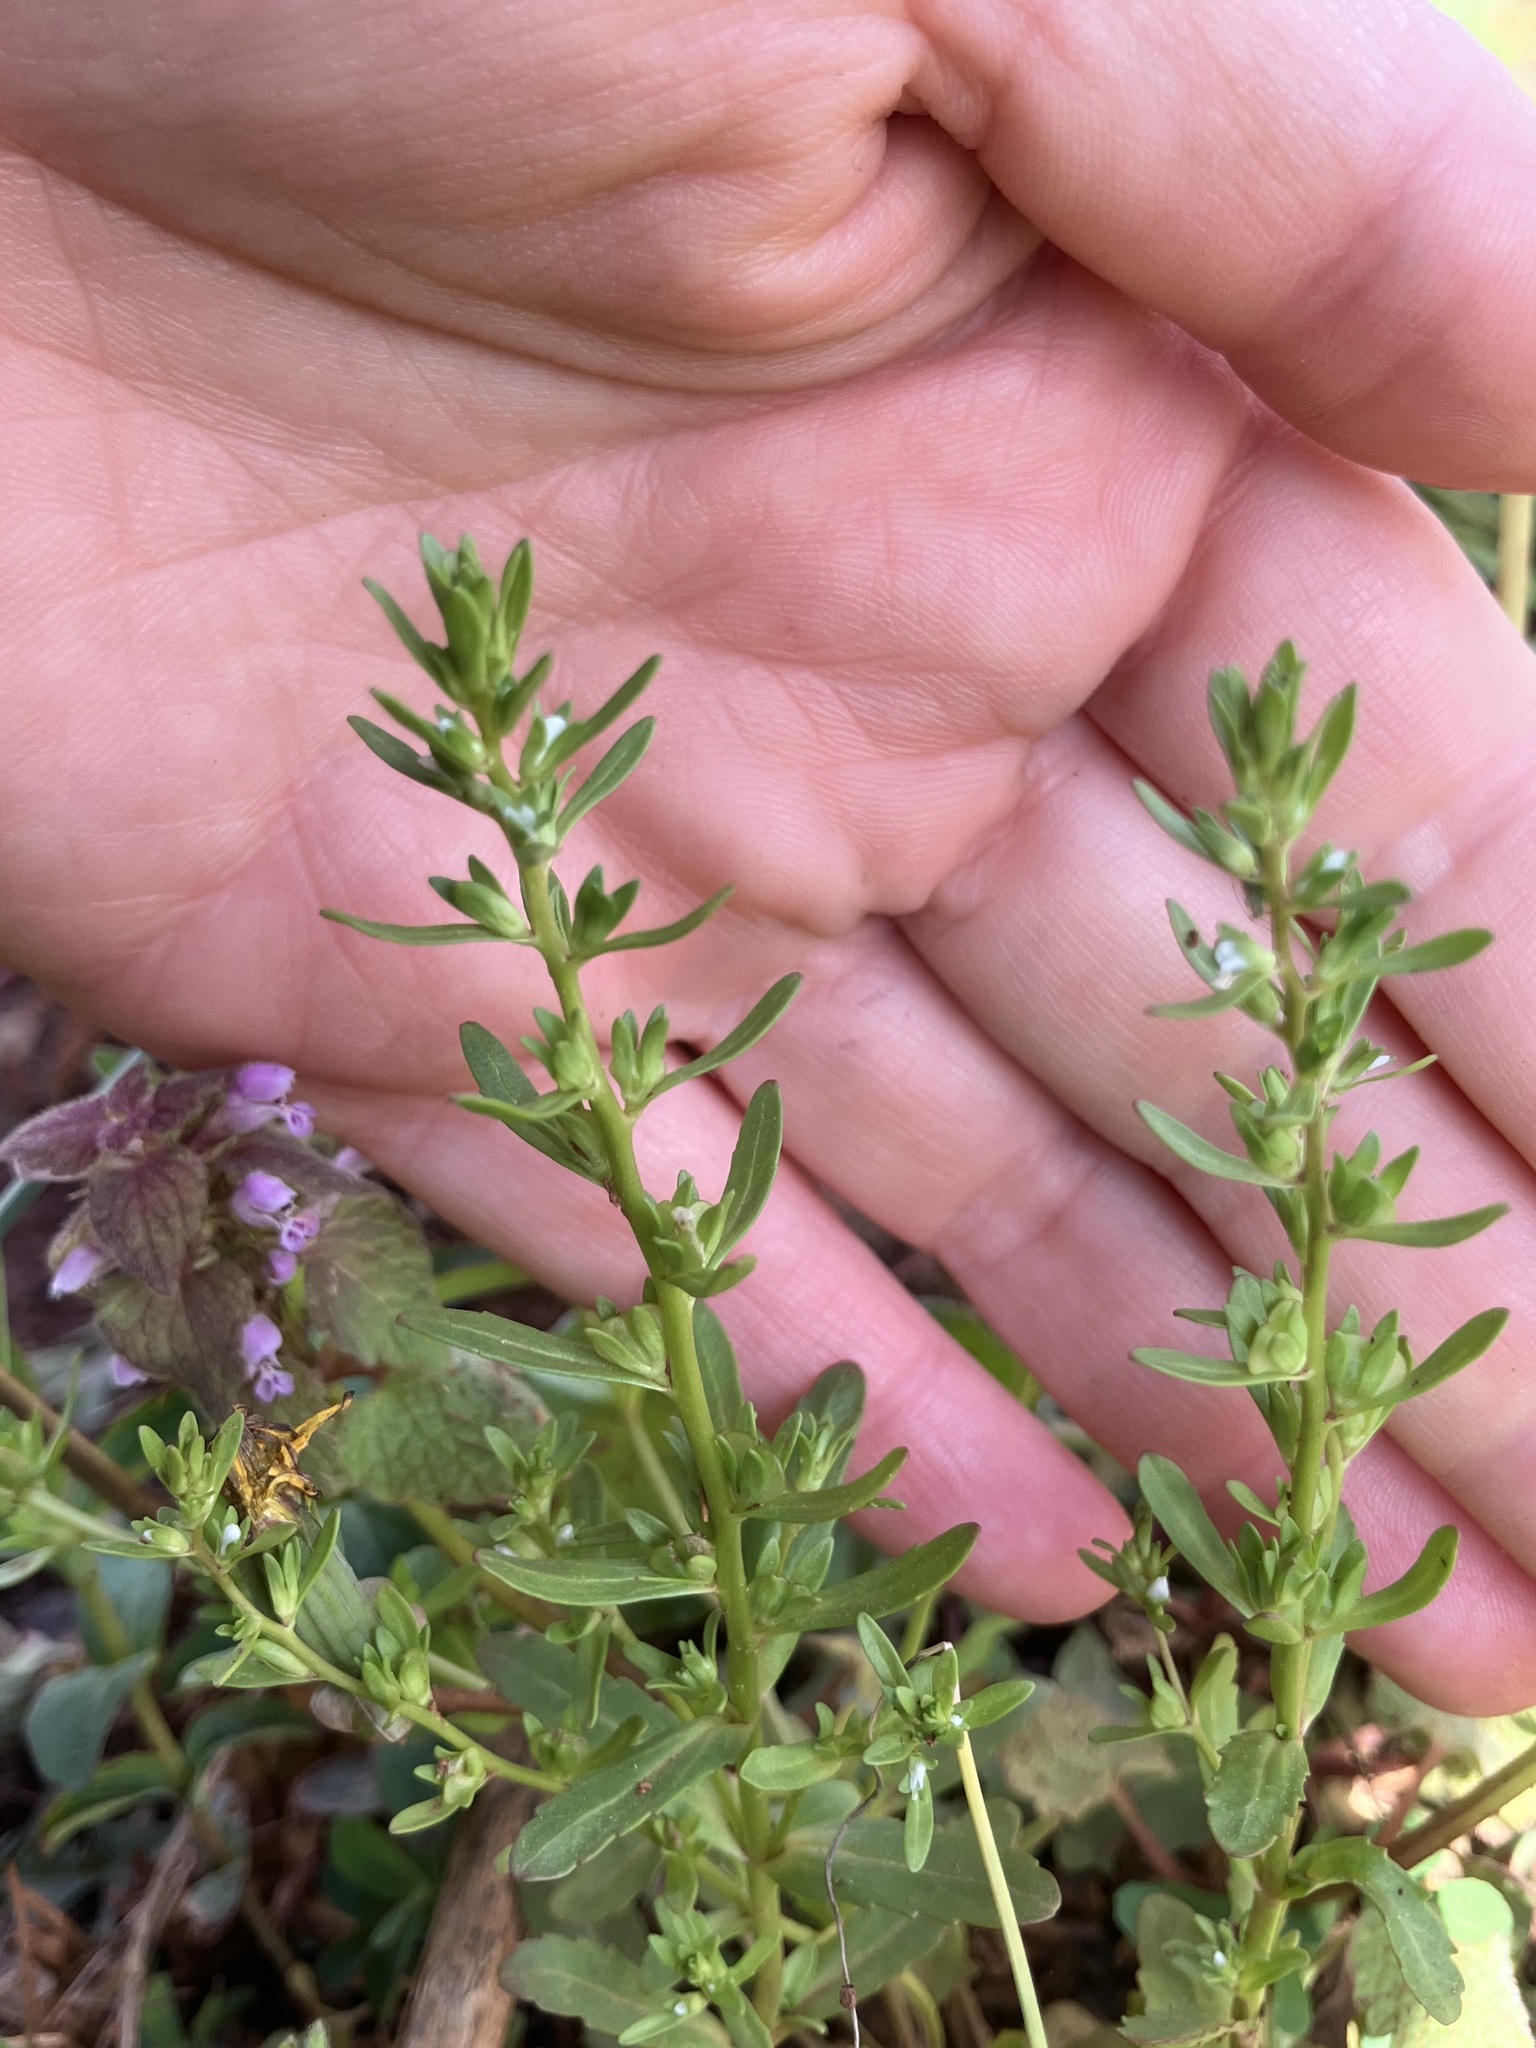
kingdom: Plantae
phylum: Tracheophyta
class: Magnoliopsida
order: Lamiales
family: Plantaginaceae
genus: Veronica
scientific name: Veronica peregrina
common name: Neckweed
